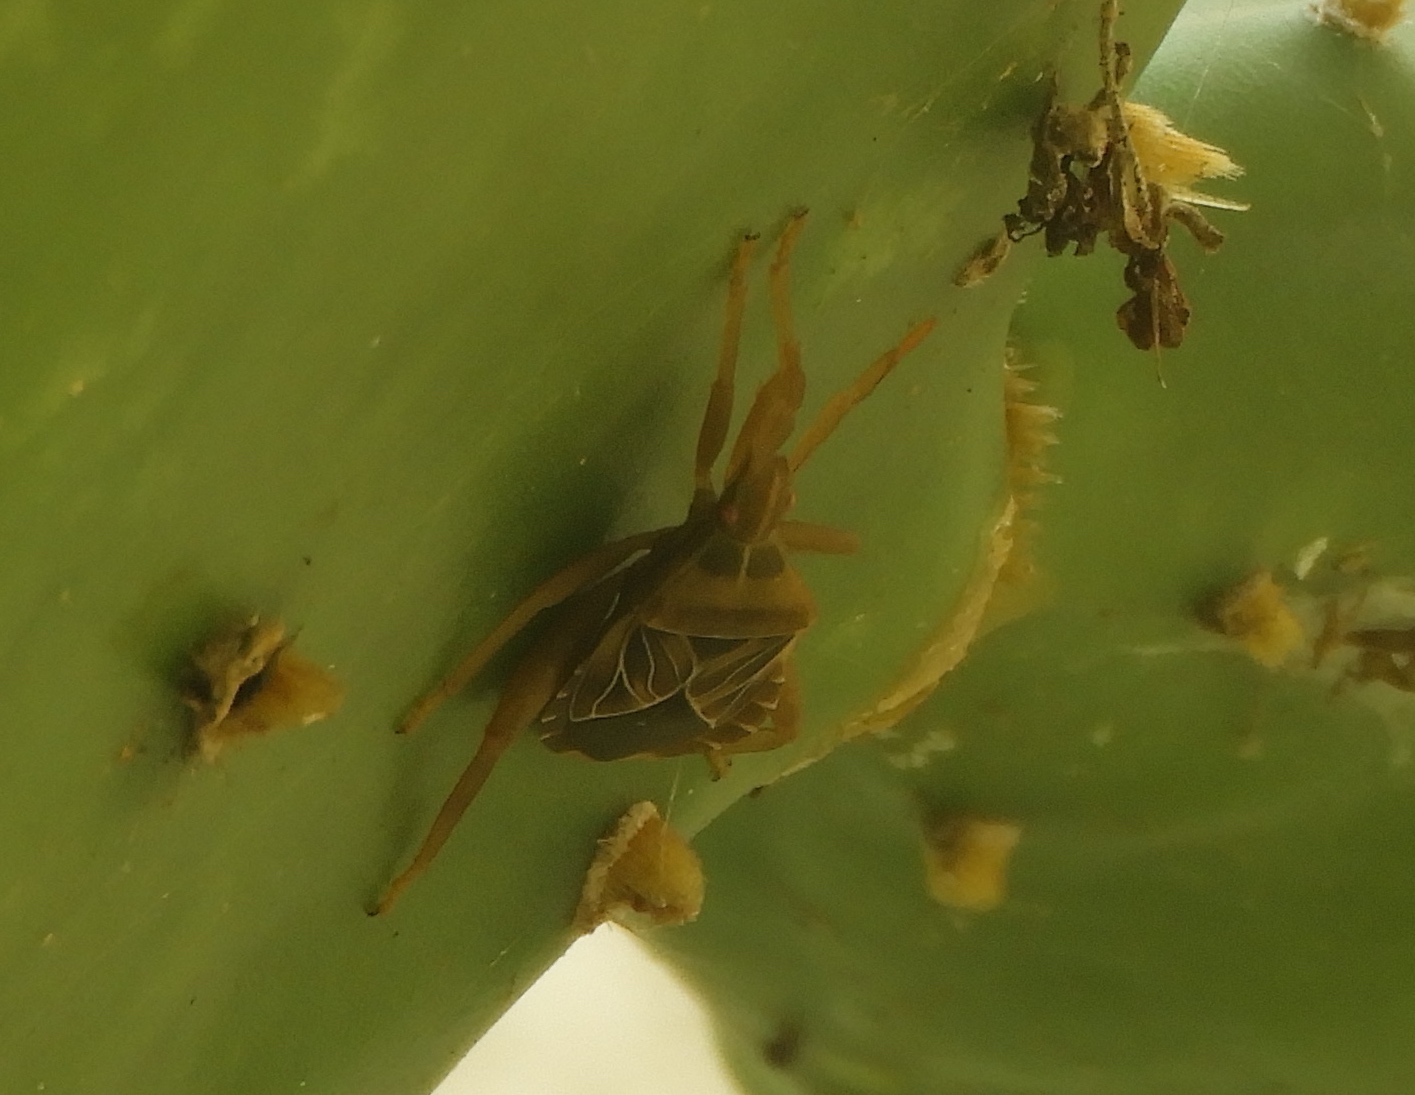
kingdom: Animalia
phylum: Arthropoda
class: Insecta
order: Hemiptera
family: Coreidae
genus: Chelinidea
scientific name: Chelinidea
